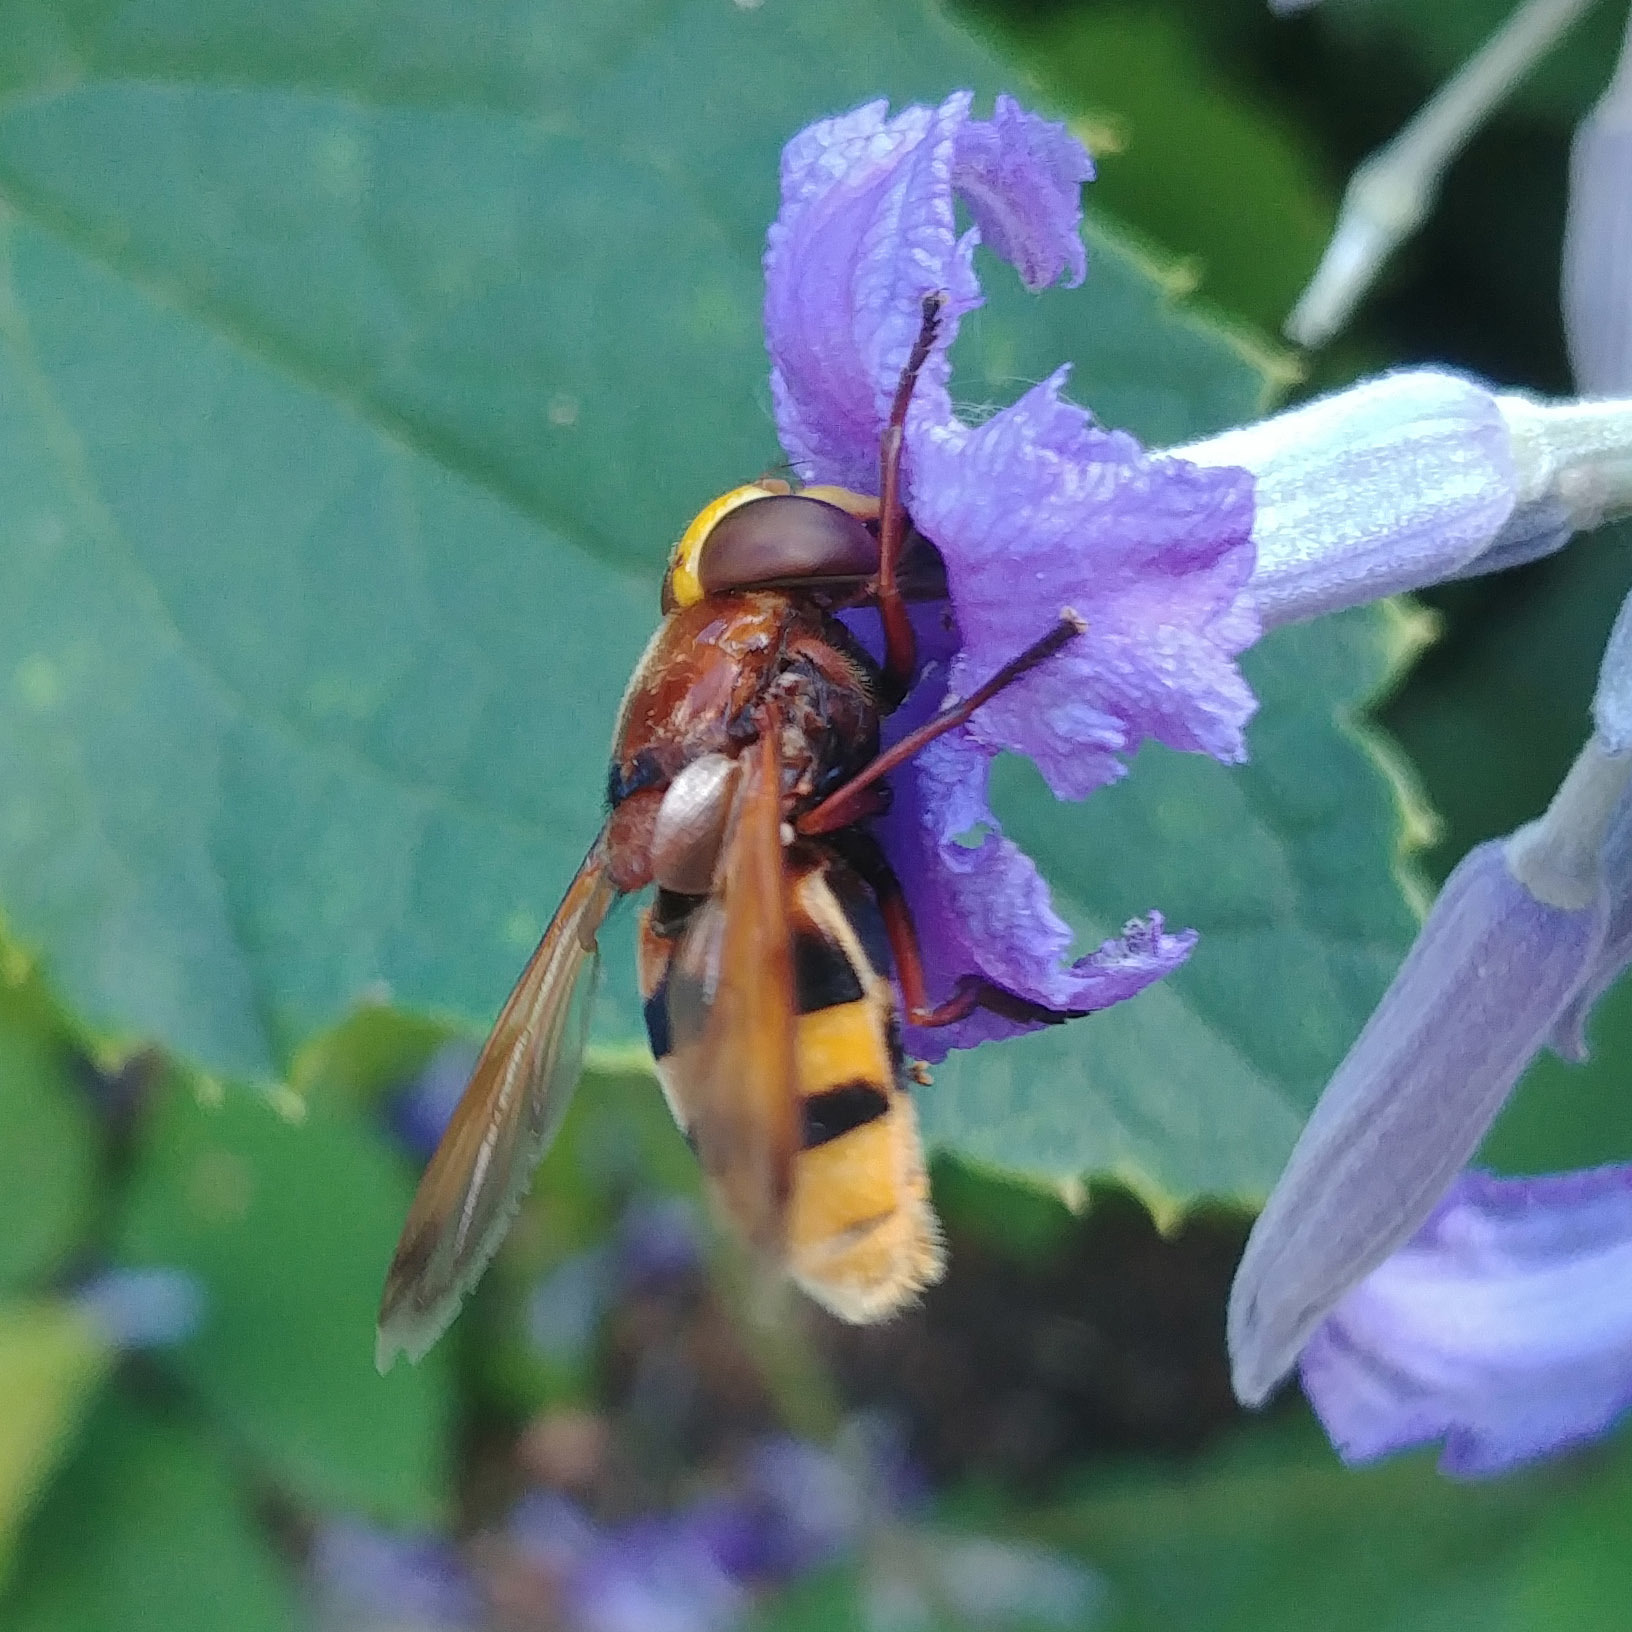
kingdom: Animalia
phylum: Arthropoda
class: Insecta
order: Diptera
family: Syrphidae
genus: Volucella
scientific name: Volucella zonaria
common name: Hornet hoverfly
